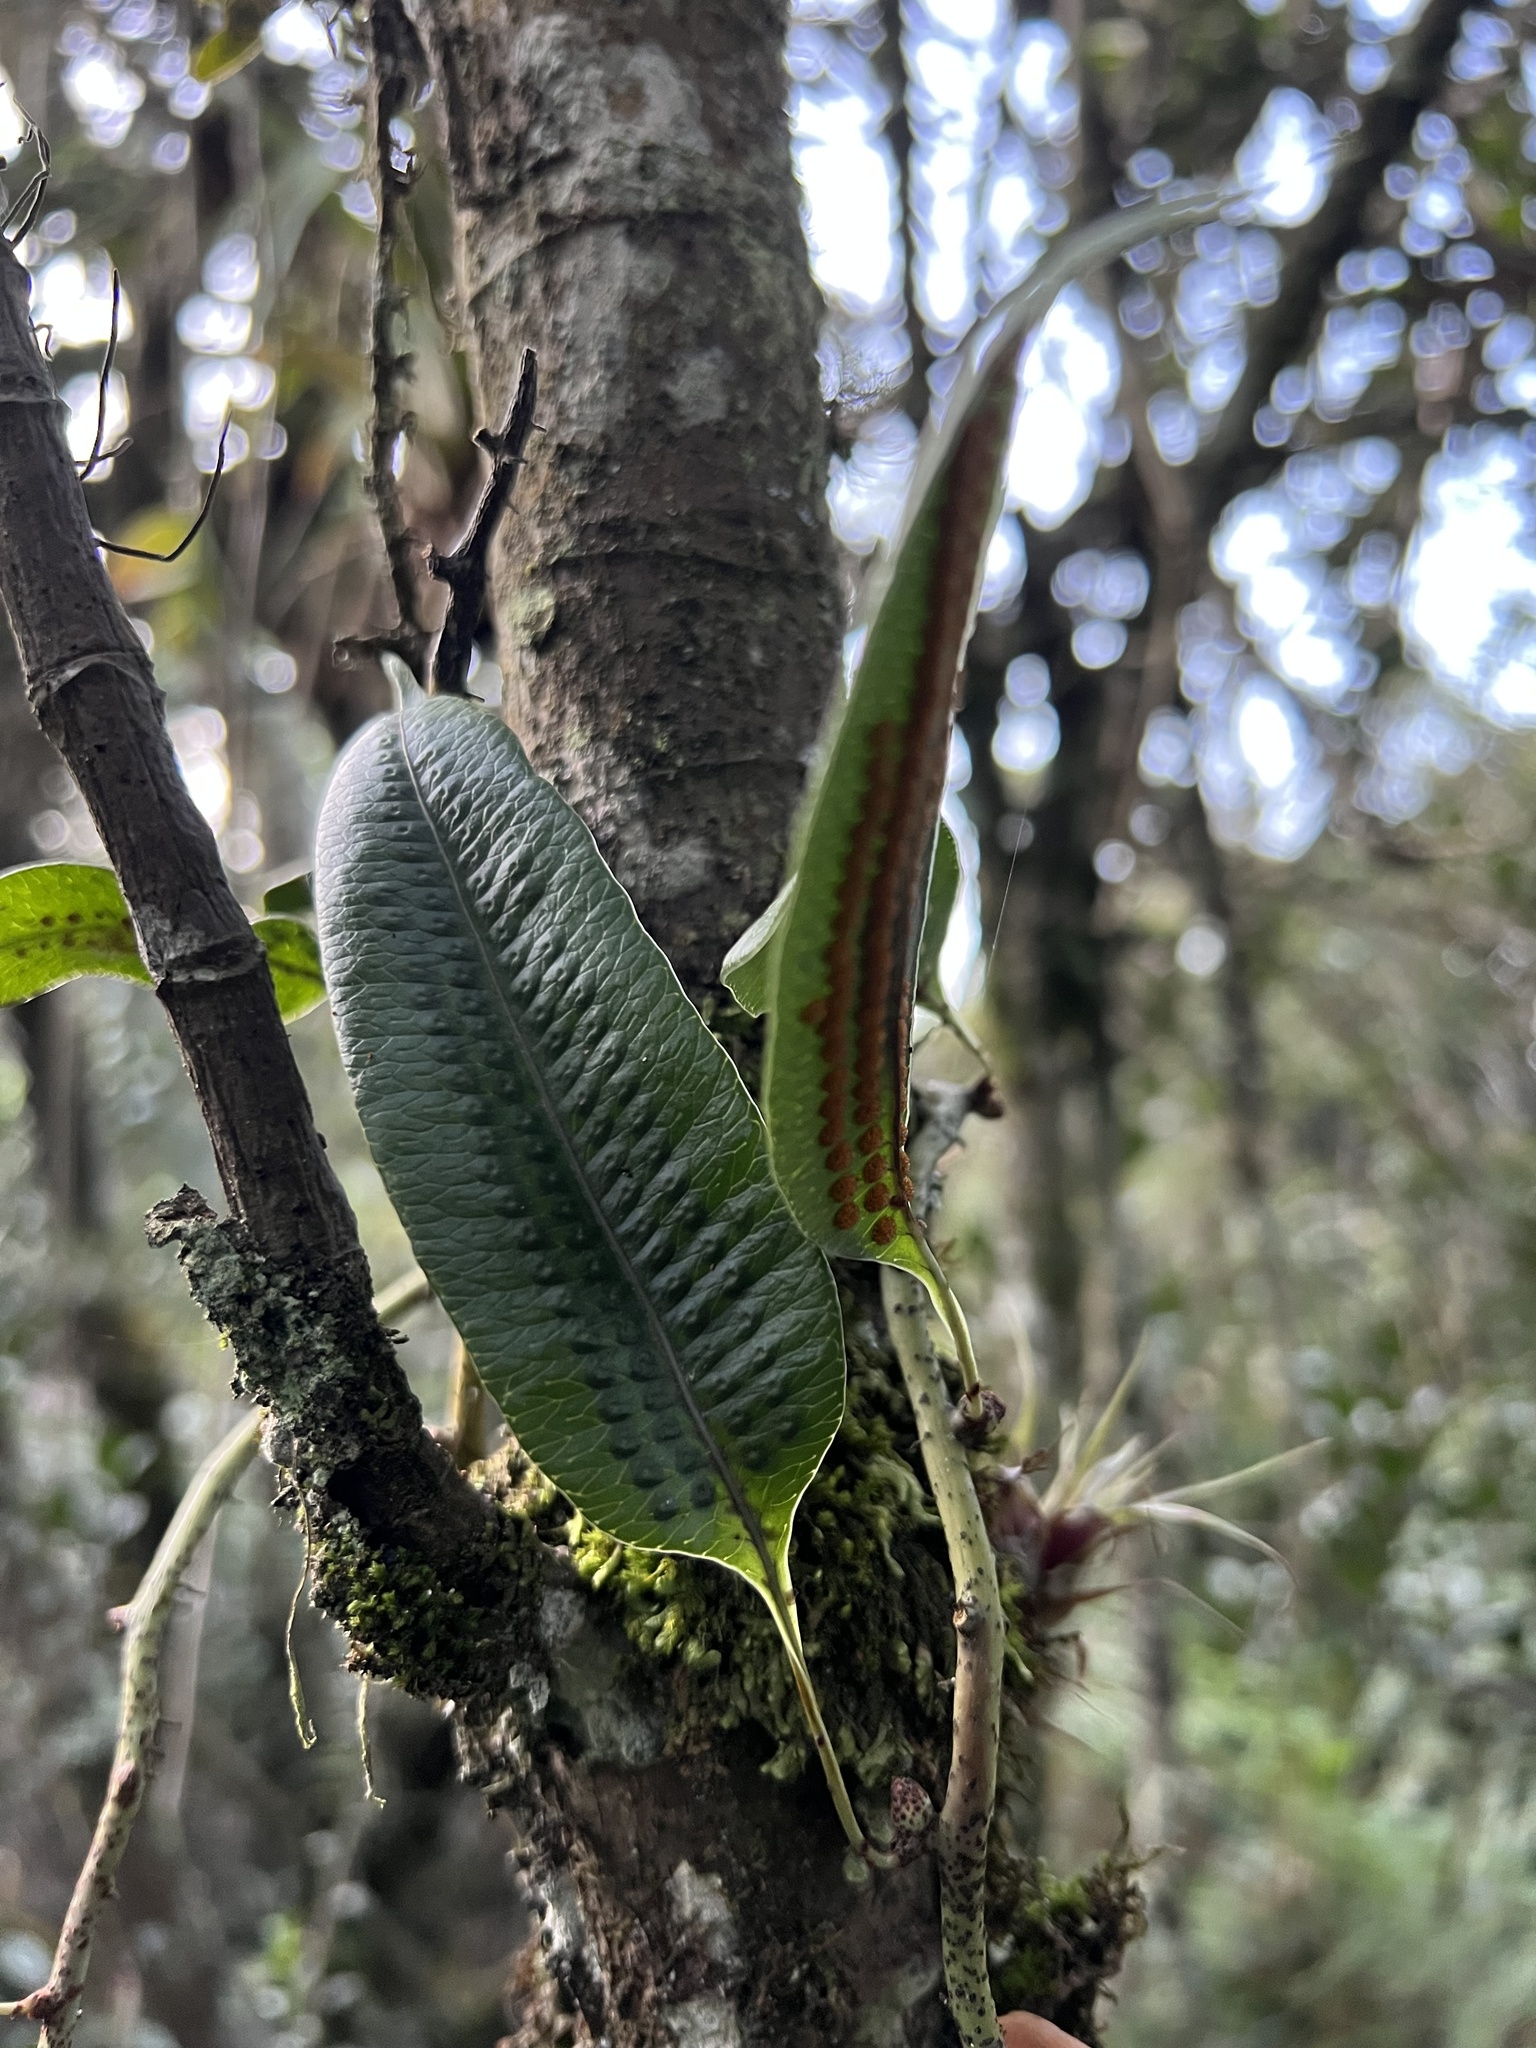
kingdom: Plantae
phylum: Tracheophyta
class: Polypodiopsida
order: Polypodiales
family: Polypodiaceae
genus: Serpocaulon
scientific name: Serpocaulon levigatum
